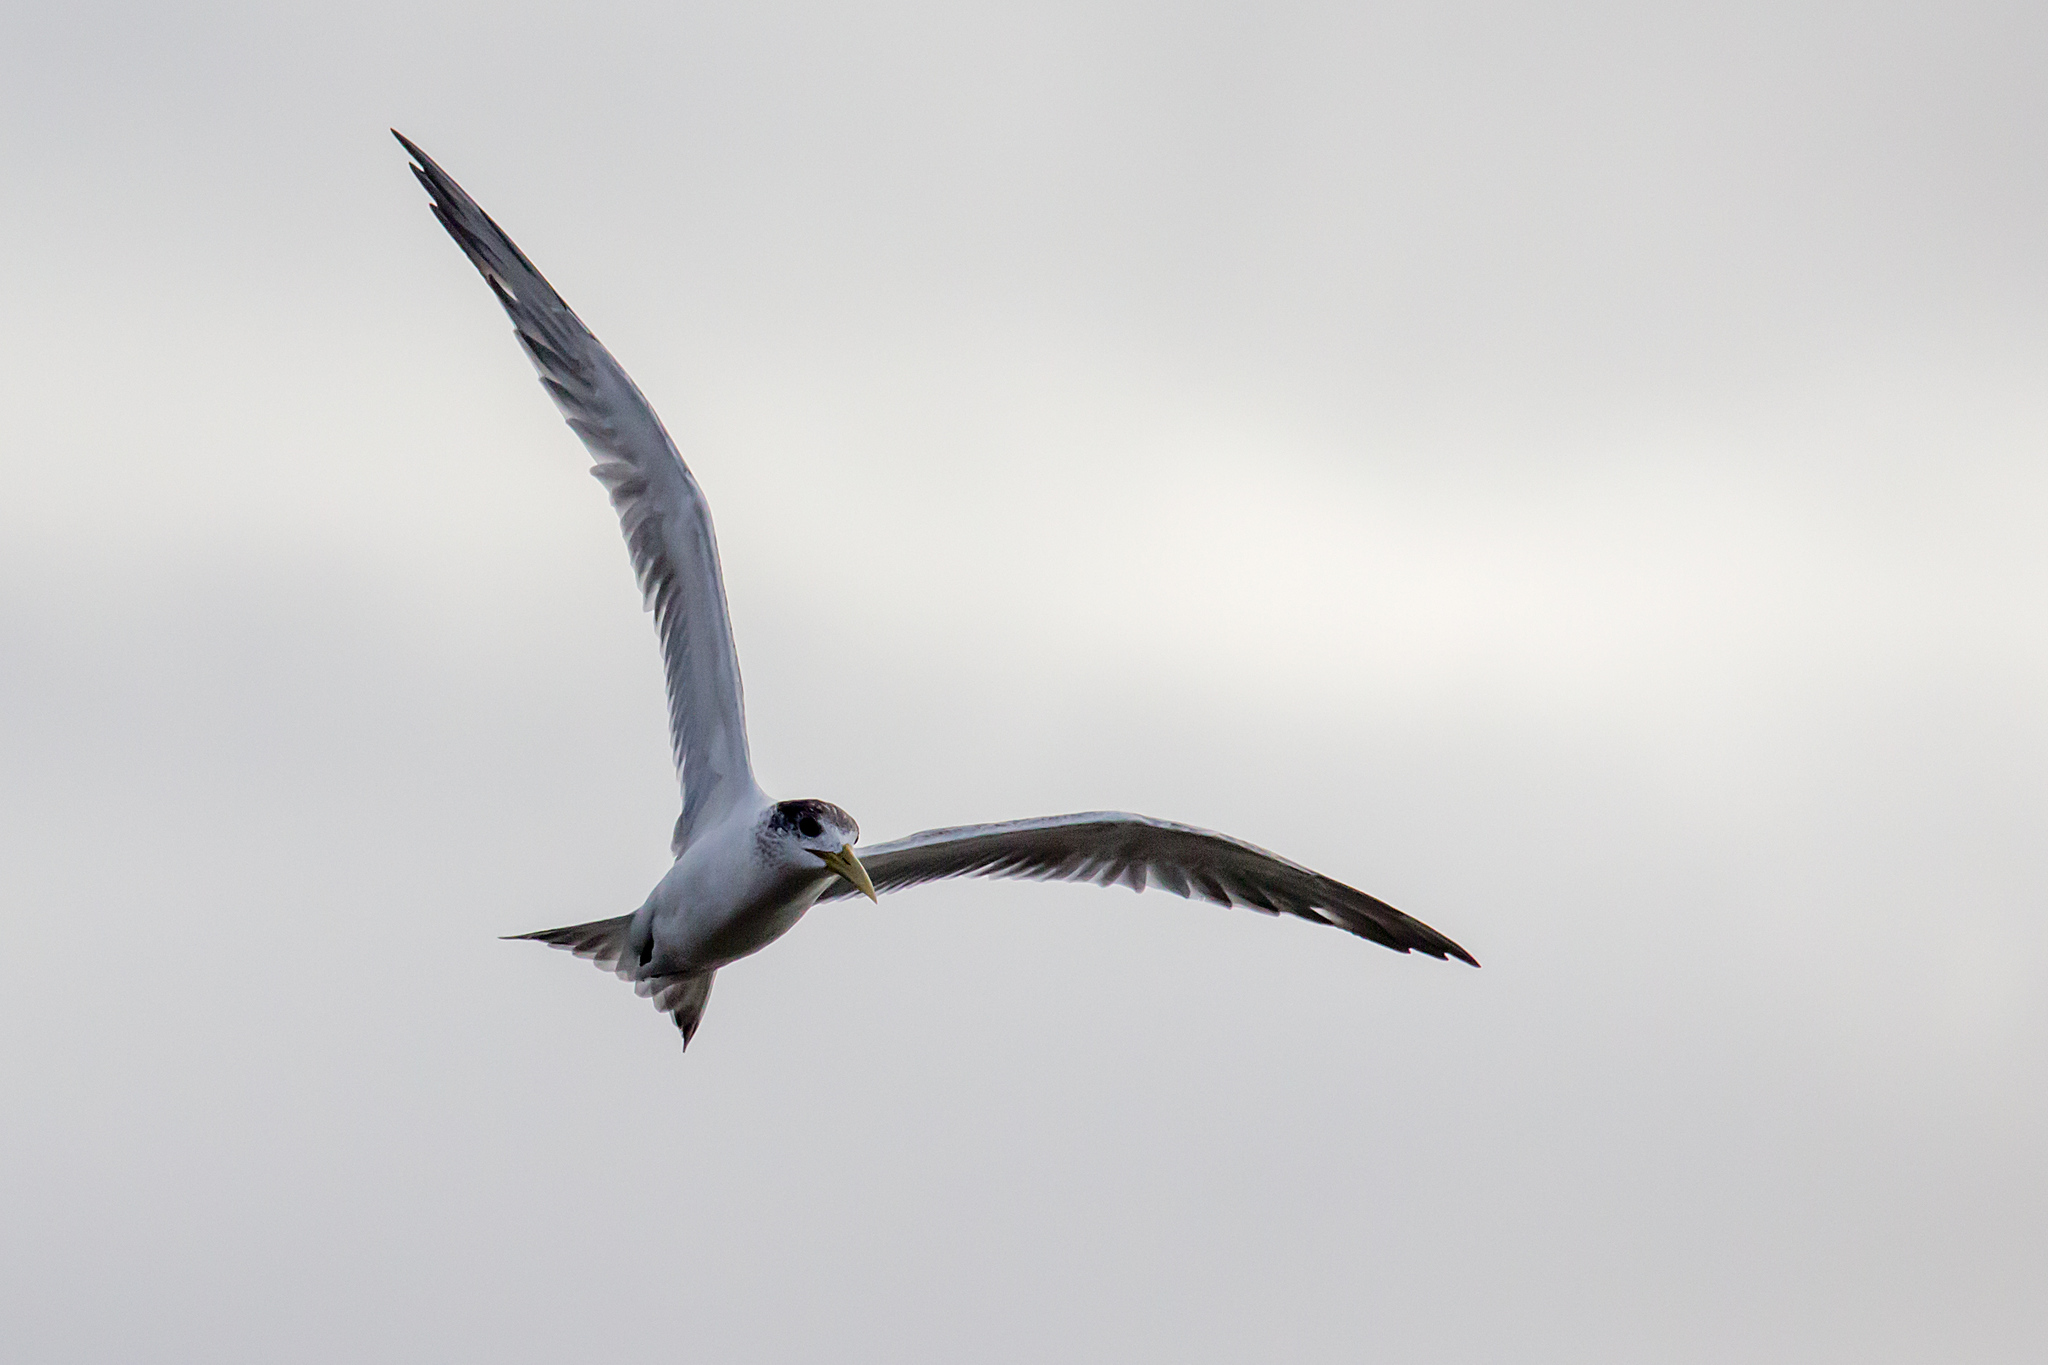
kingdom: Animalia
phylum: Chordata
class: Aves
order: Charadriiformes
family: Laridae
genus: Thalasseus
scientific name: Thalasseus bergii
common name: Greater crested tern
